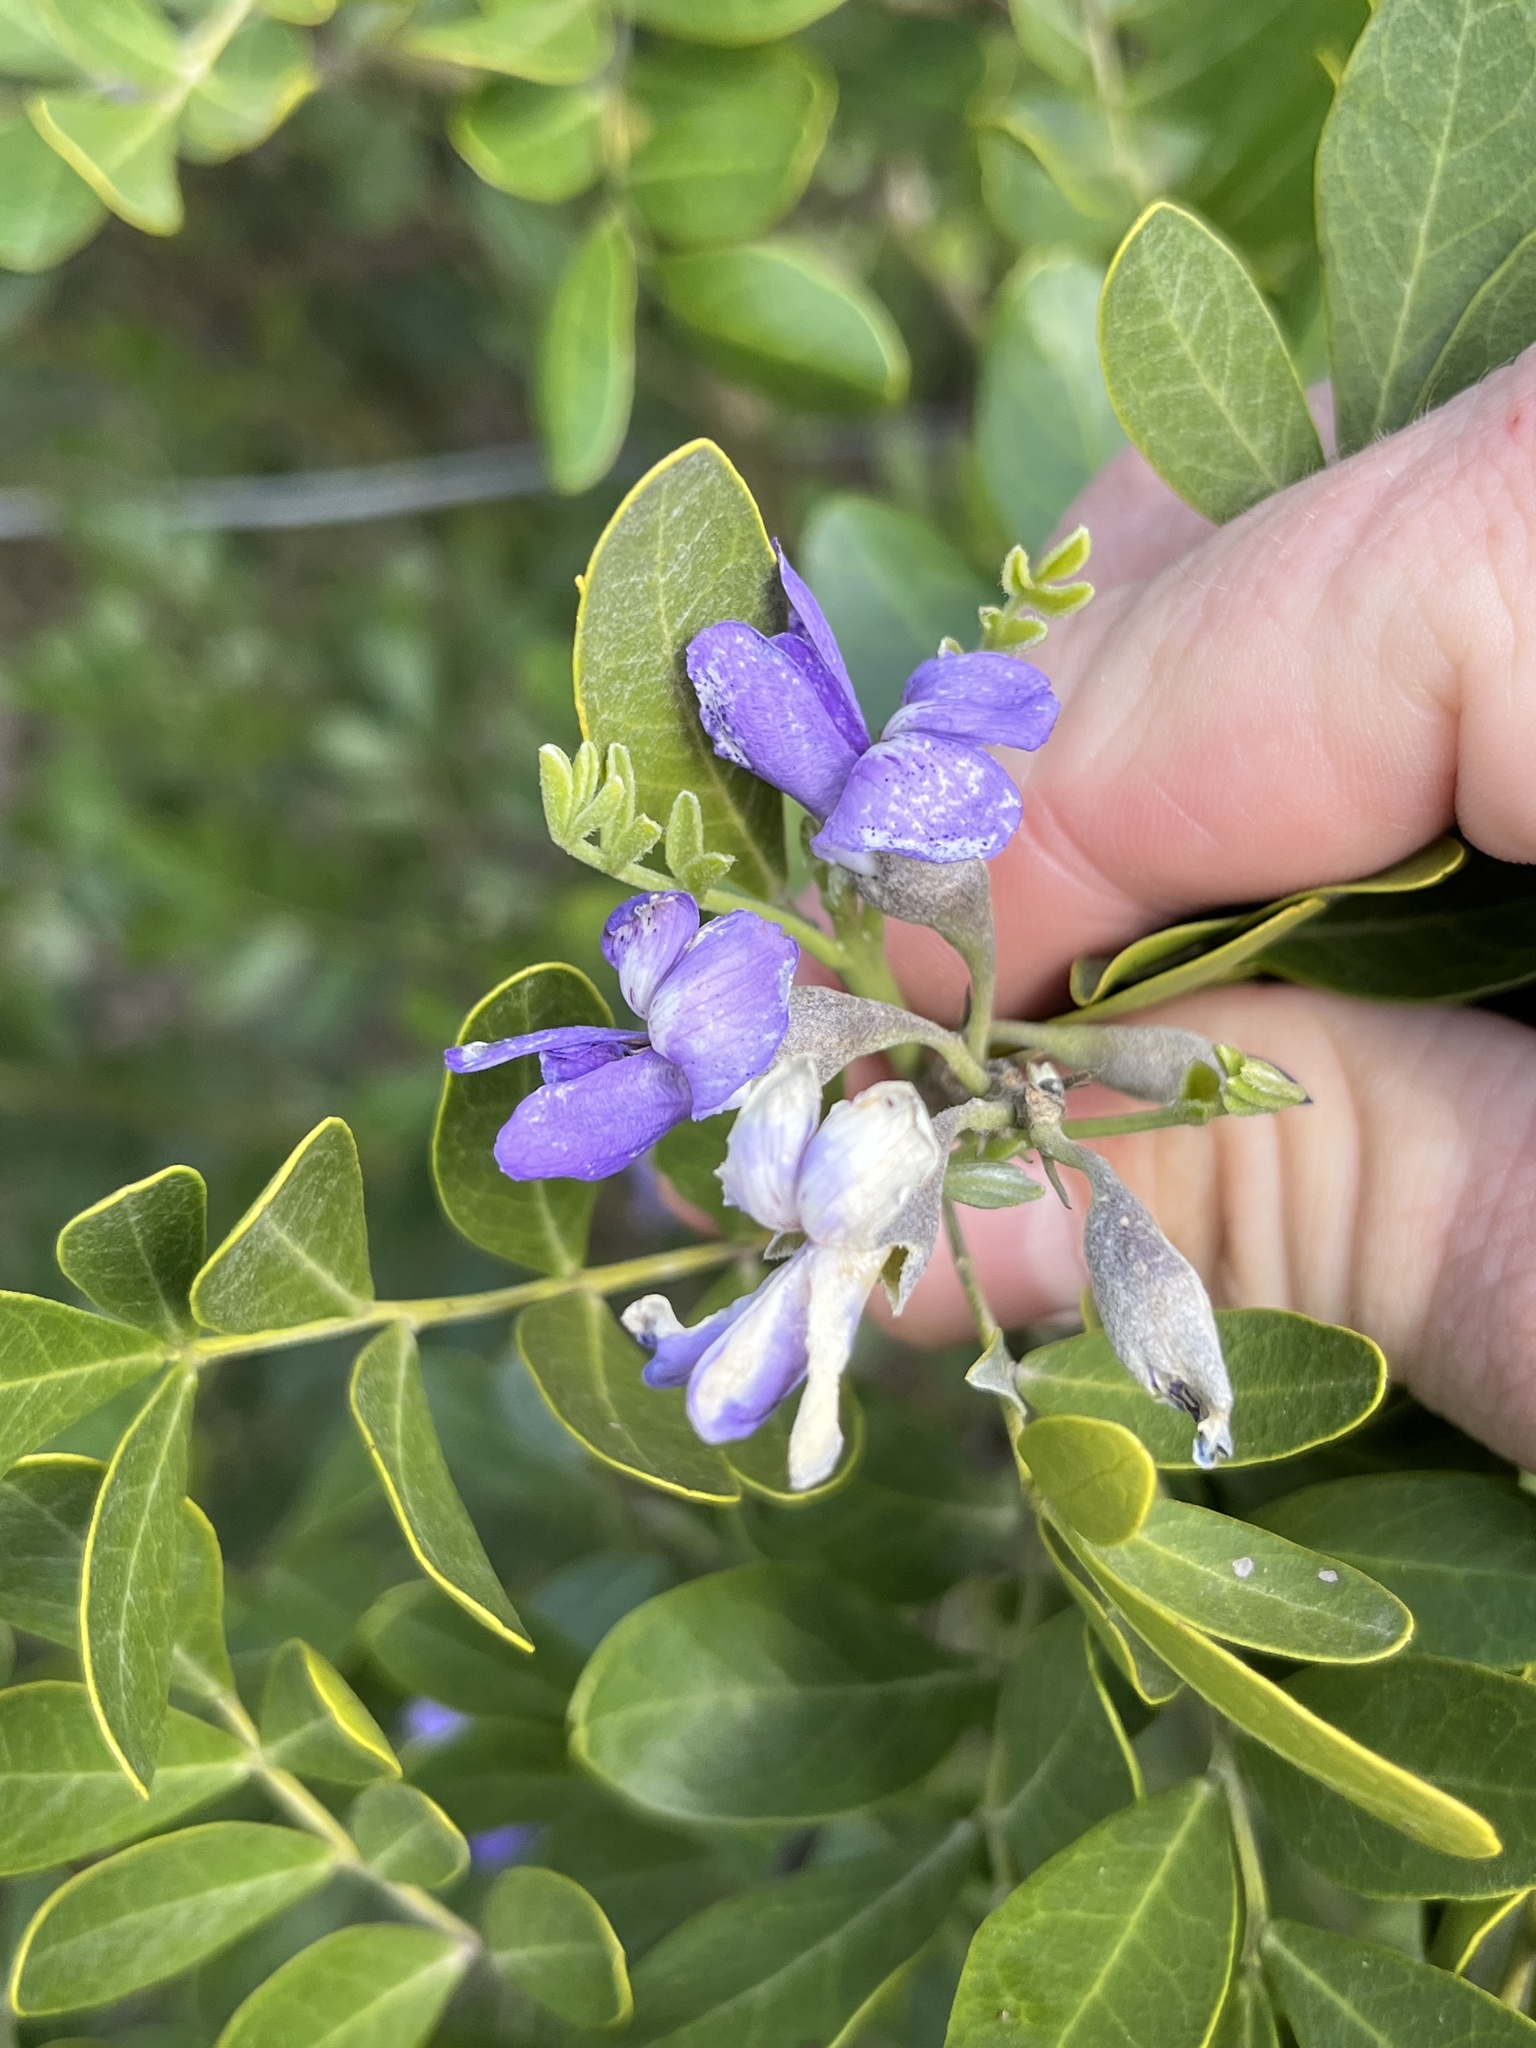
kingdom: Plantae
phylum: Tracheophyta
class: Magnoliopsida
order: Fabales
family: Fabaceae
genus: Dermatophyllum
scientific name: Dermatophyllum secundiflorum
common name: Texas-mountain-laurel
